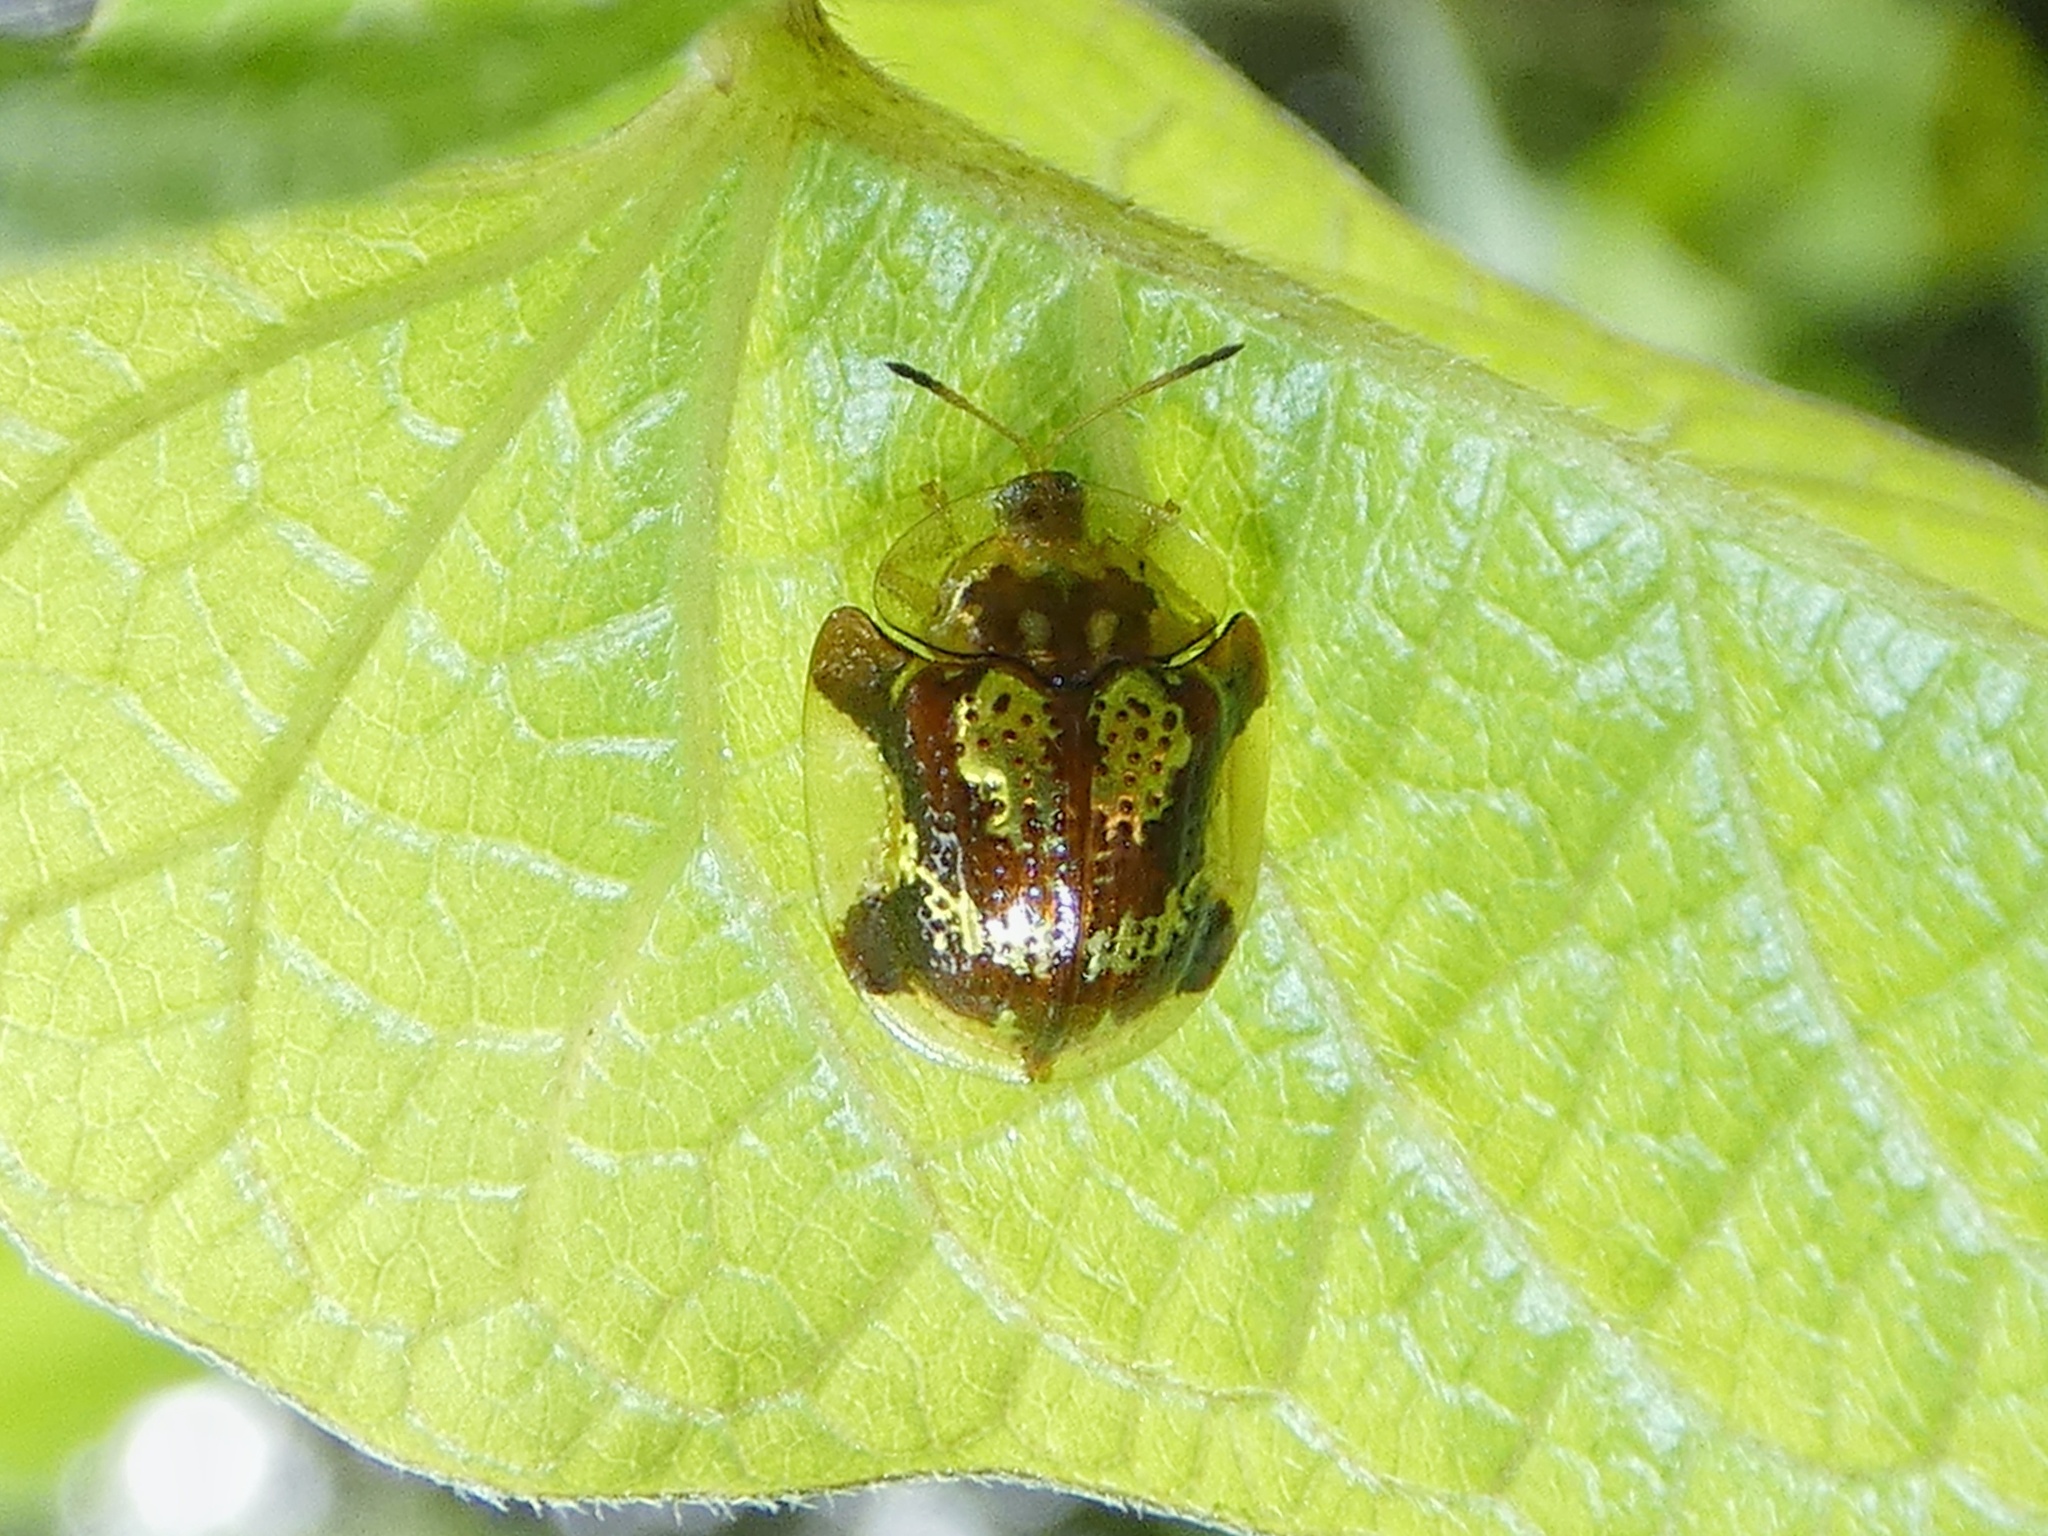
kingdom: Animalia
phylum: Arthropoda
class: Insecta
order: Coleoptera
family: Chrysomelidae
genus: Deloyala
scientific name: Deloyala insubida
